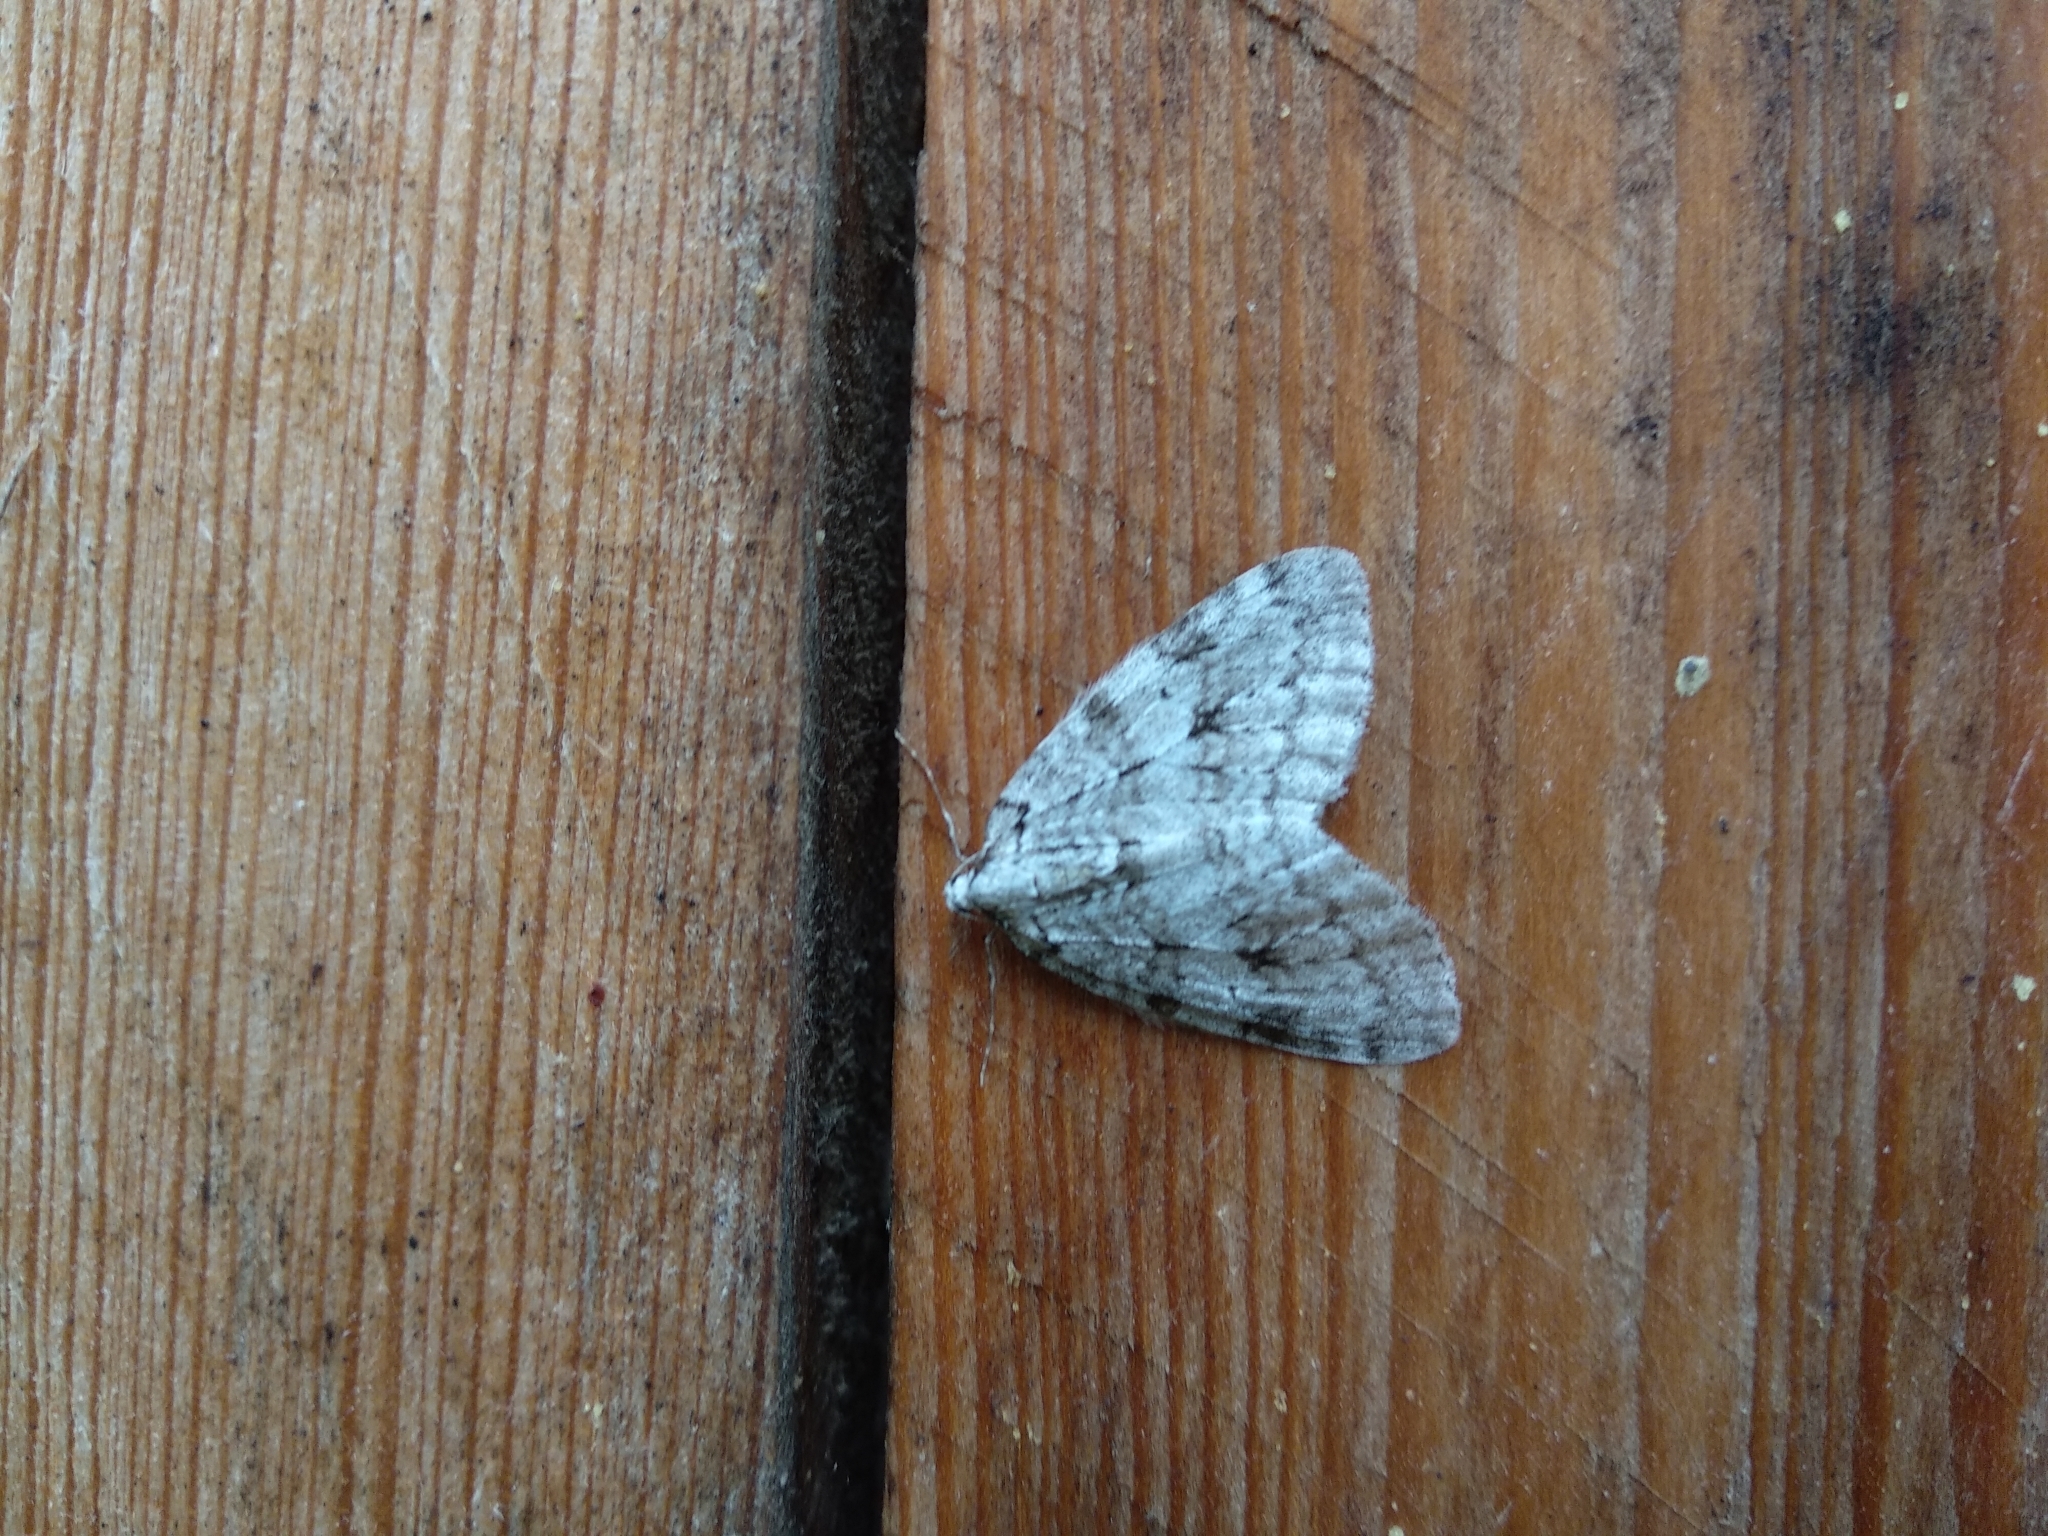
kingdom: Animalia
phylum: Arthropoda
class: Insecta
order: Lepidoptera
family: Geometridae
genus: Epirrita
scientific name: Epirrita autumnata
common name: Autumnal moth
